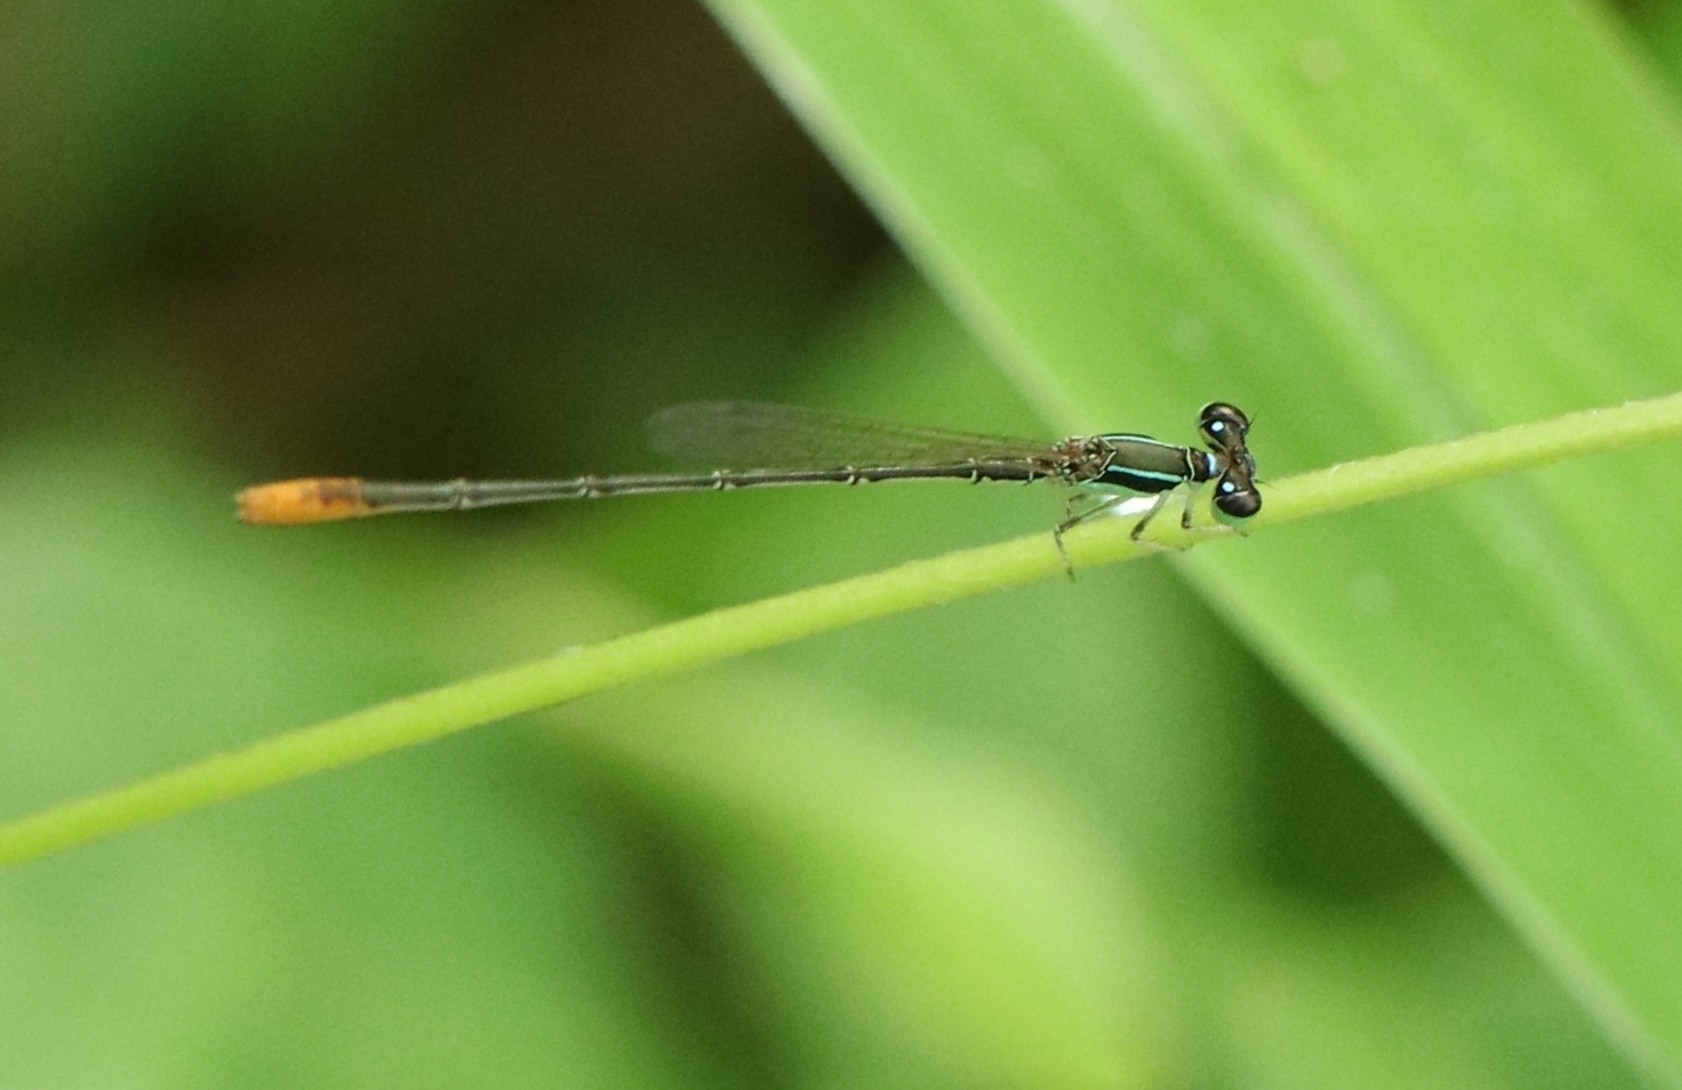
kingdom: Animalia
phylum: Arthropoda
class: Insecta
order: Odonata
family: Coenagrionidae
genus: Agriocnemis
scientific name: Agriocnemis pygmaea
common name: Pygmy wisp
